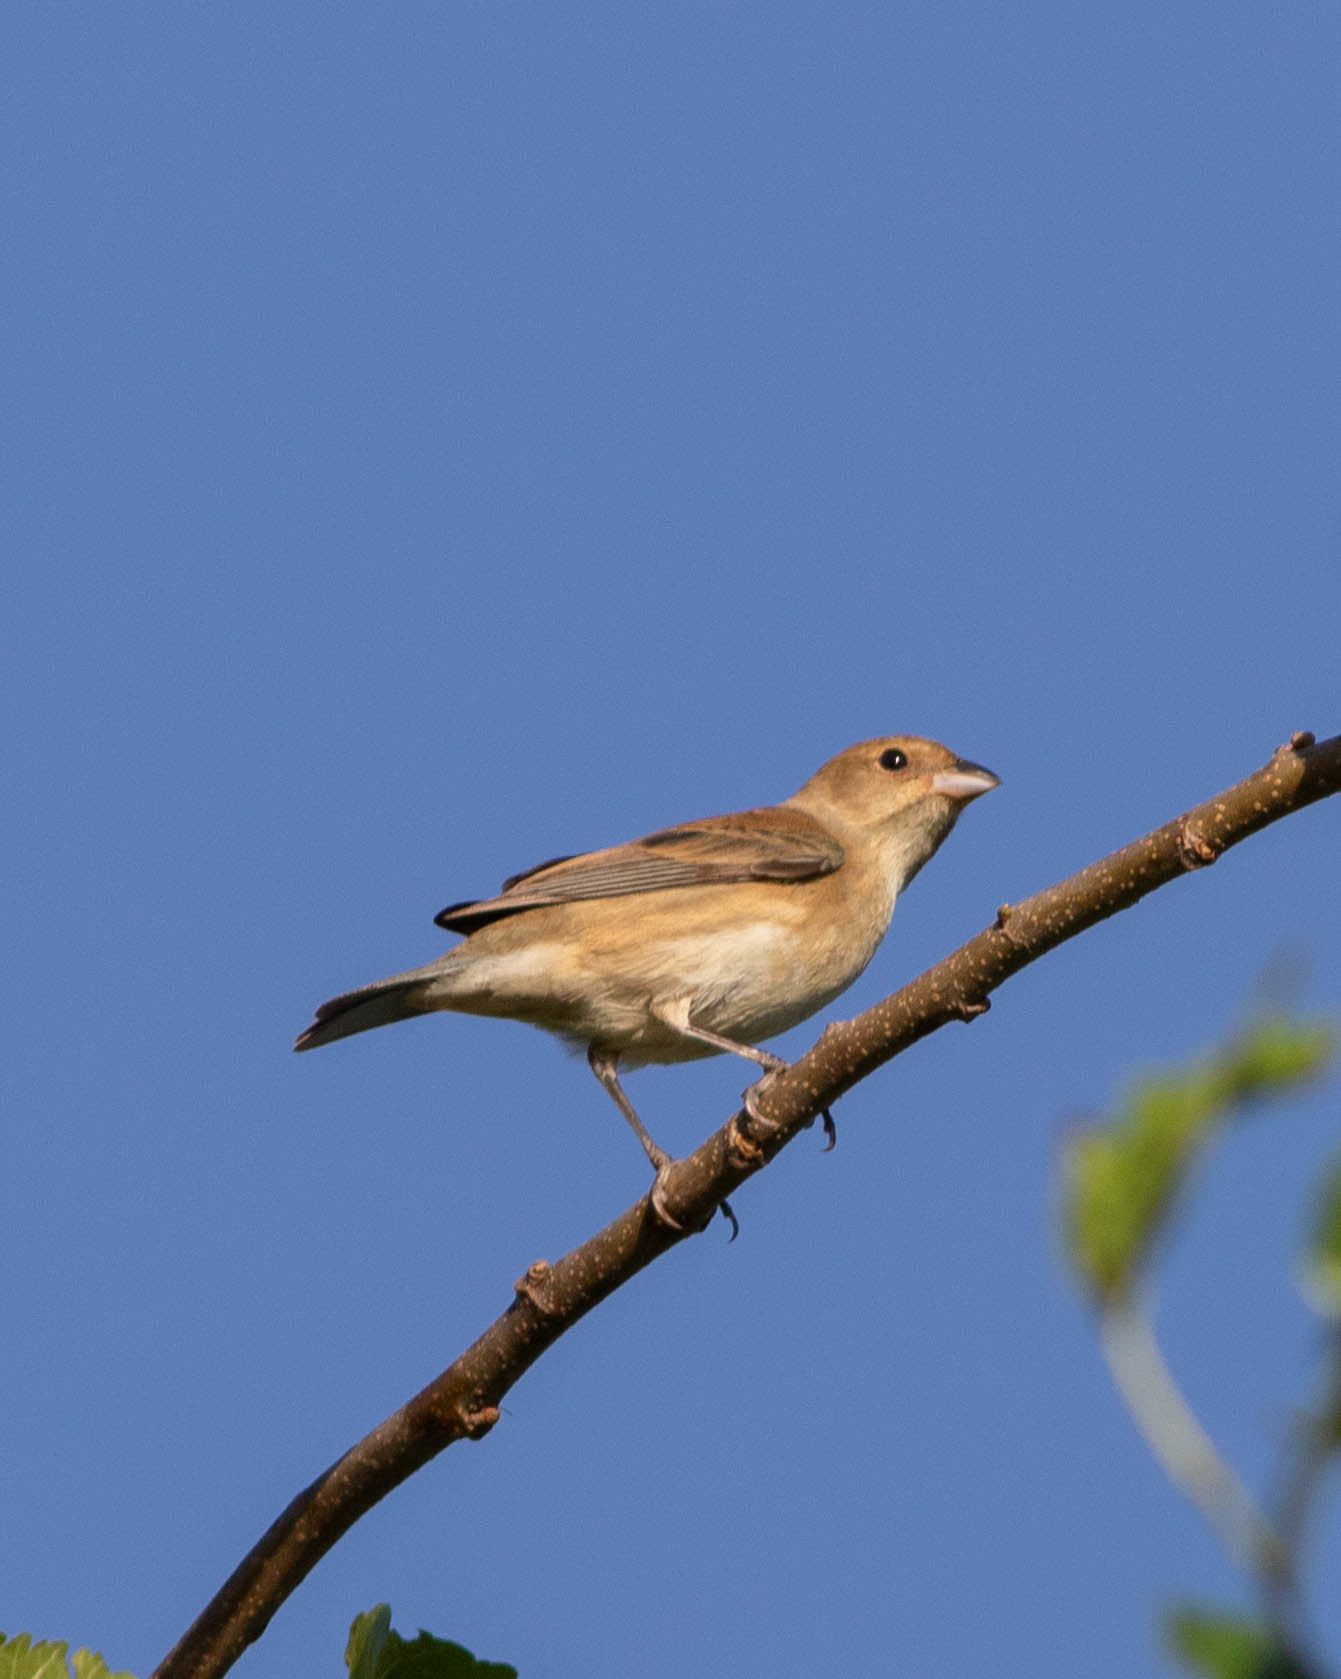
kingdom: Animalia
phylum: Chordata
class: Aves
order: Passeriformes
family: Cardinalidae
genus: Passerina
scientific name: Passerina cyanea
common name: Indigo bunting
